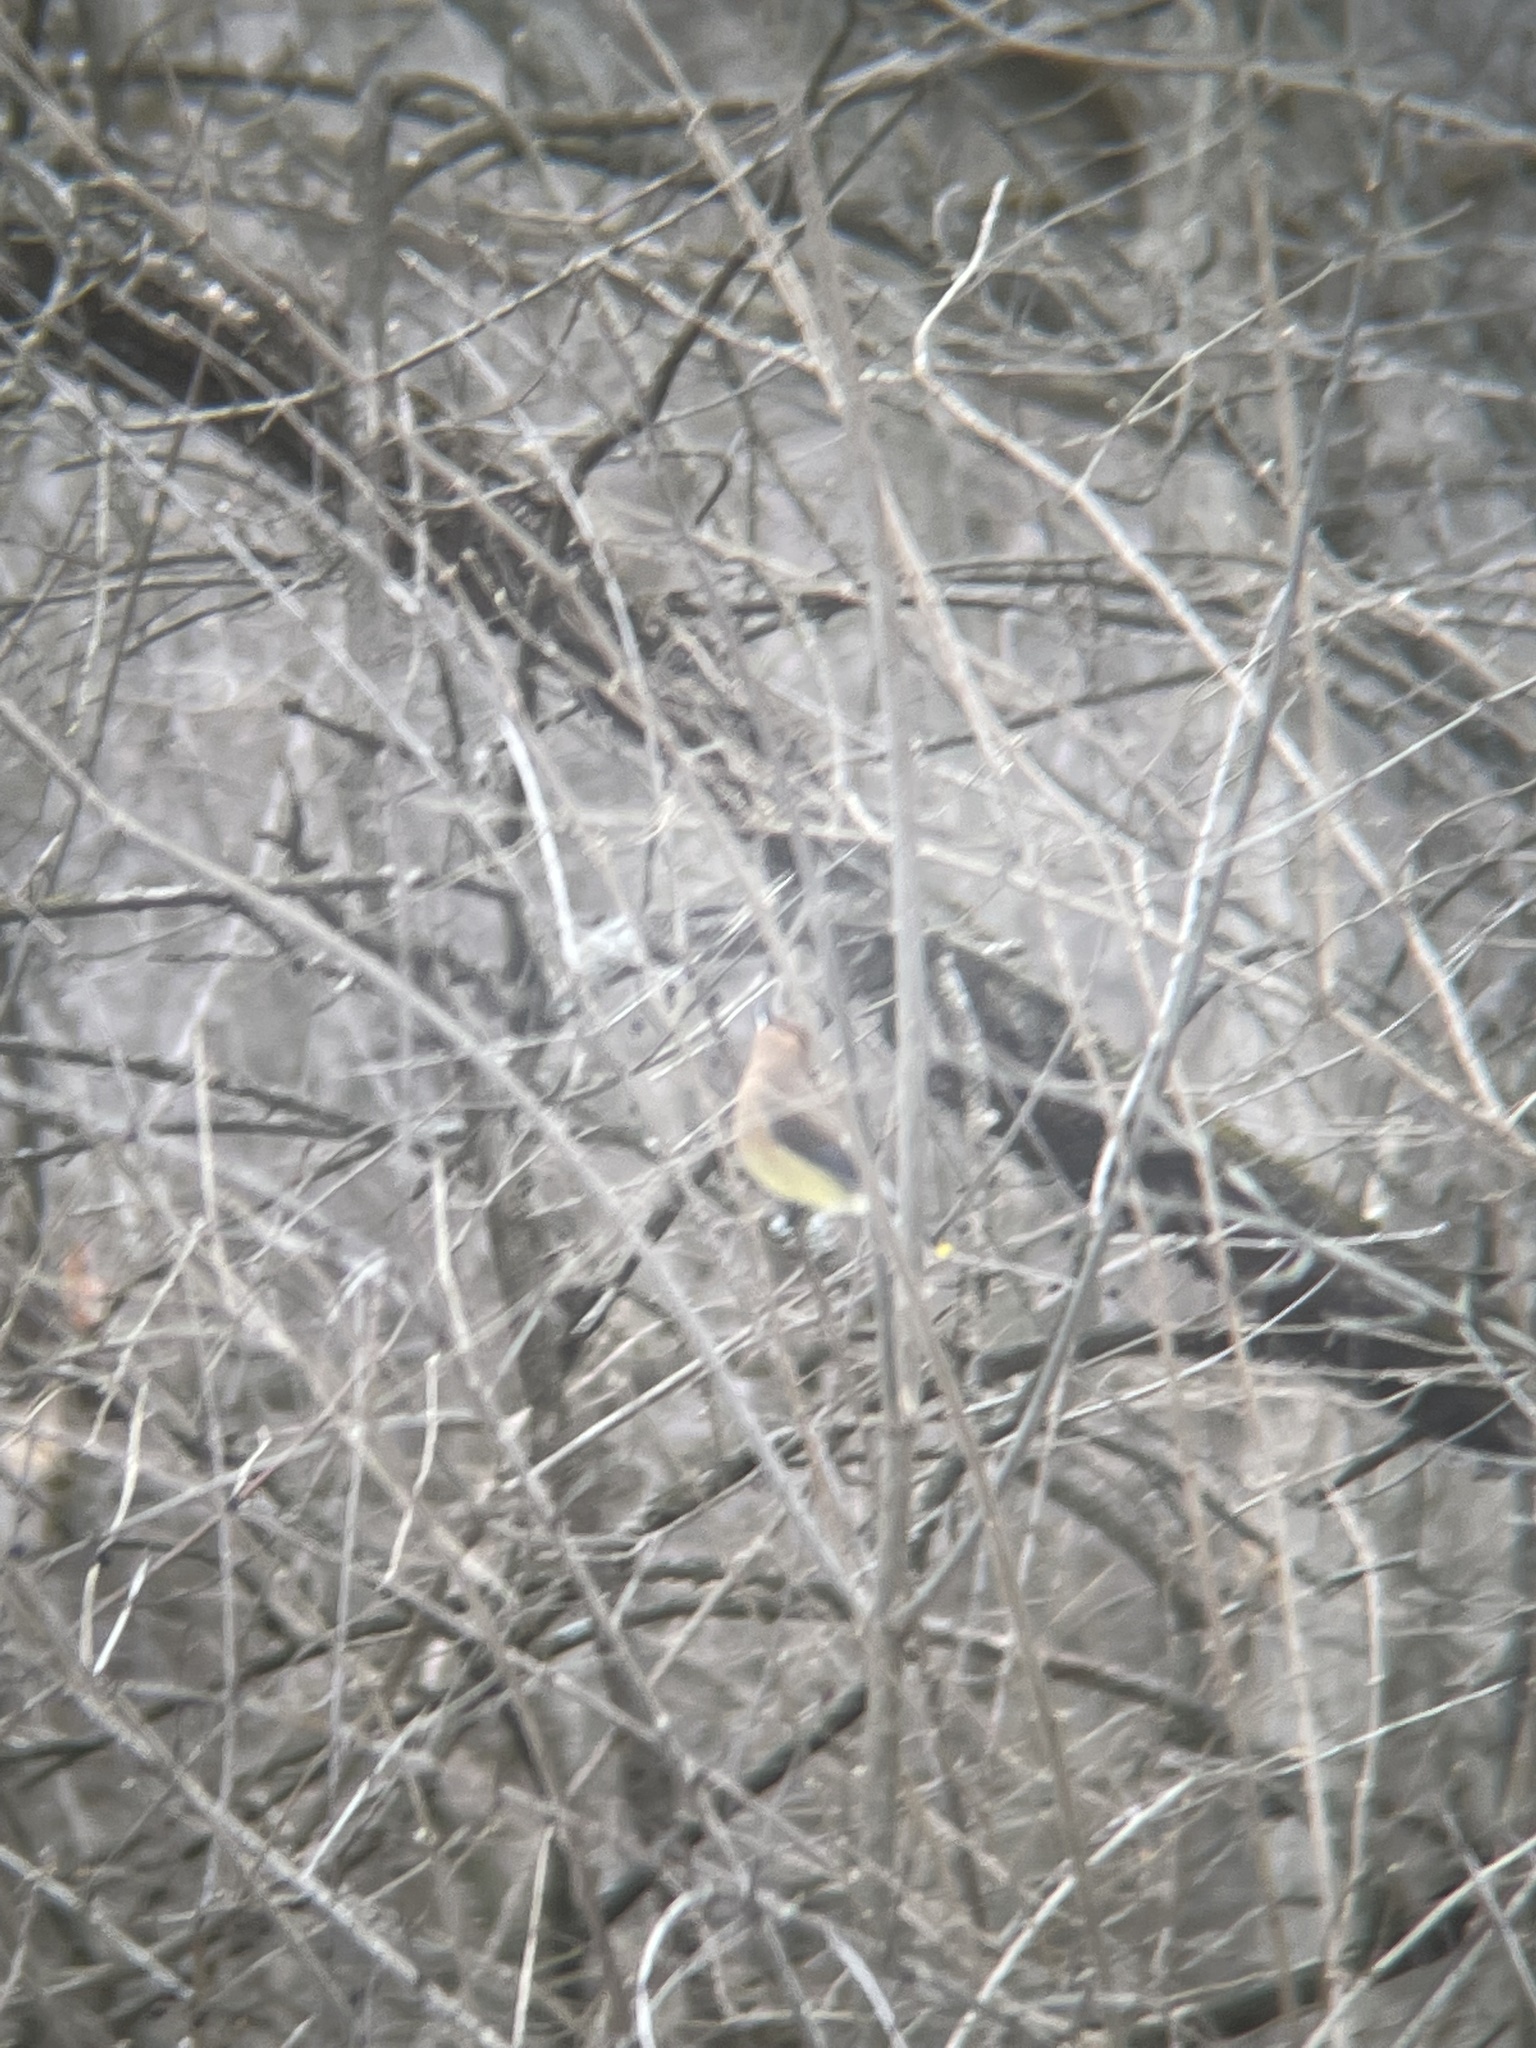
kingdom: Animalia
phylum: Chordata
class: Aves
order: Passeriformes
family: Bombycillidae
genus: Bombycilla
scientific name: Bombycilla cedrorum
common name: Cedar waxwing
